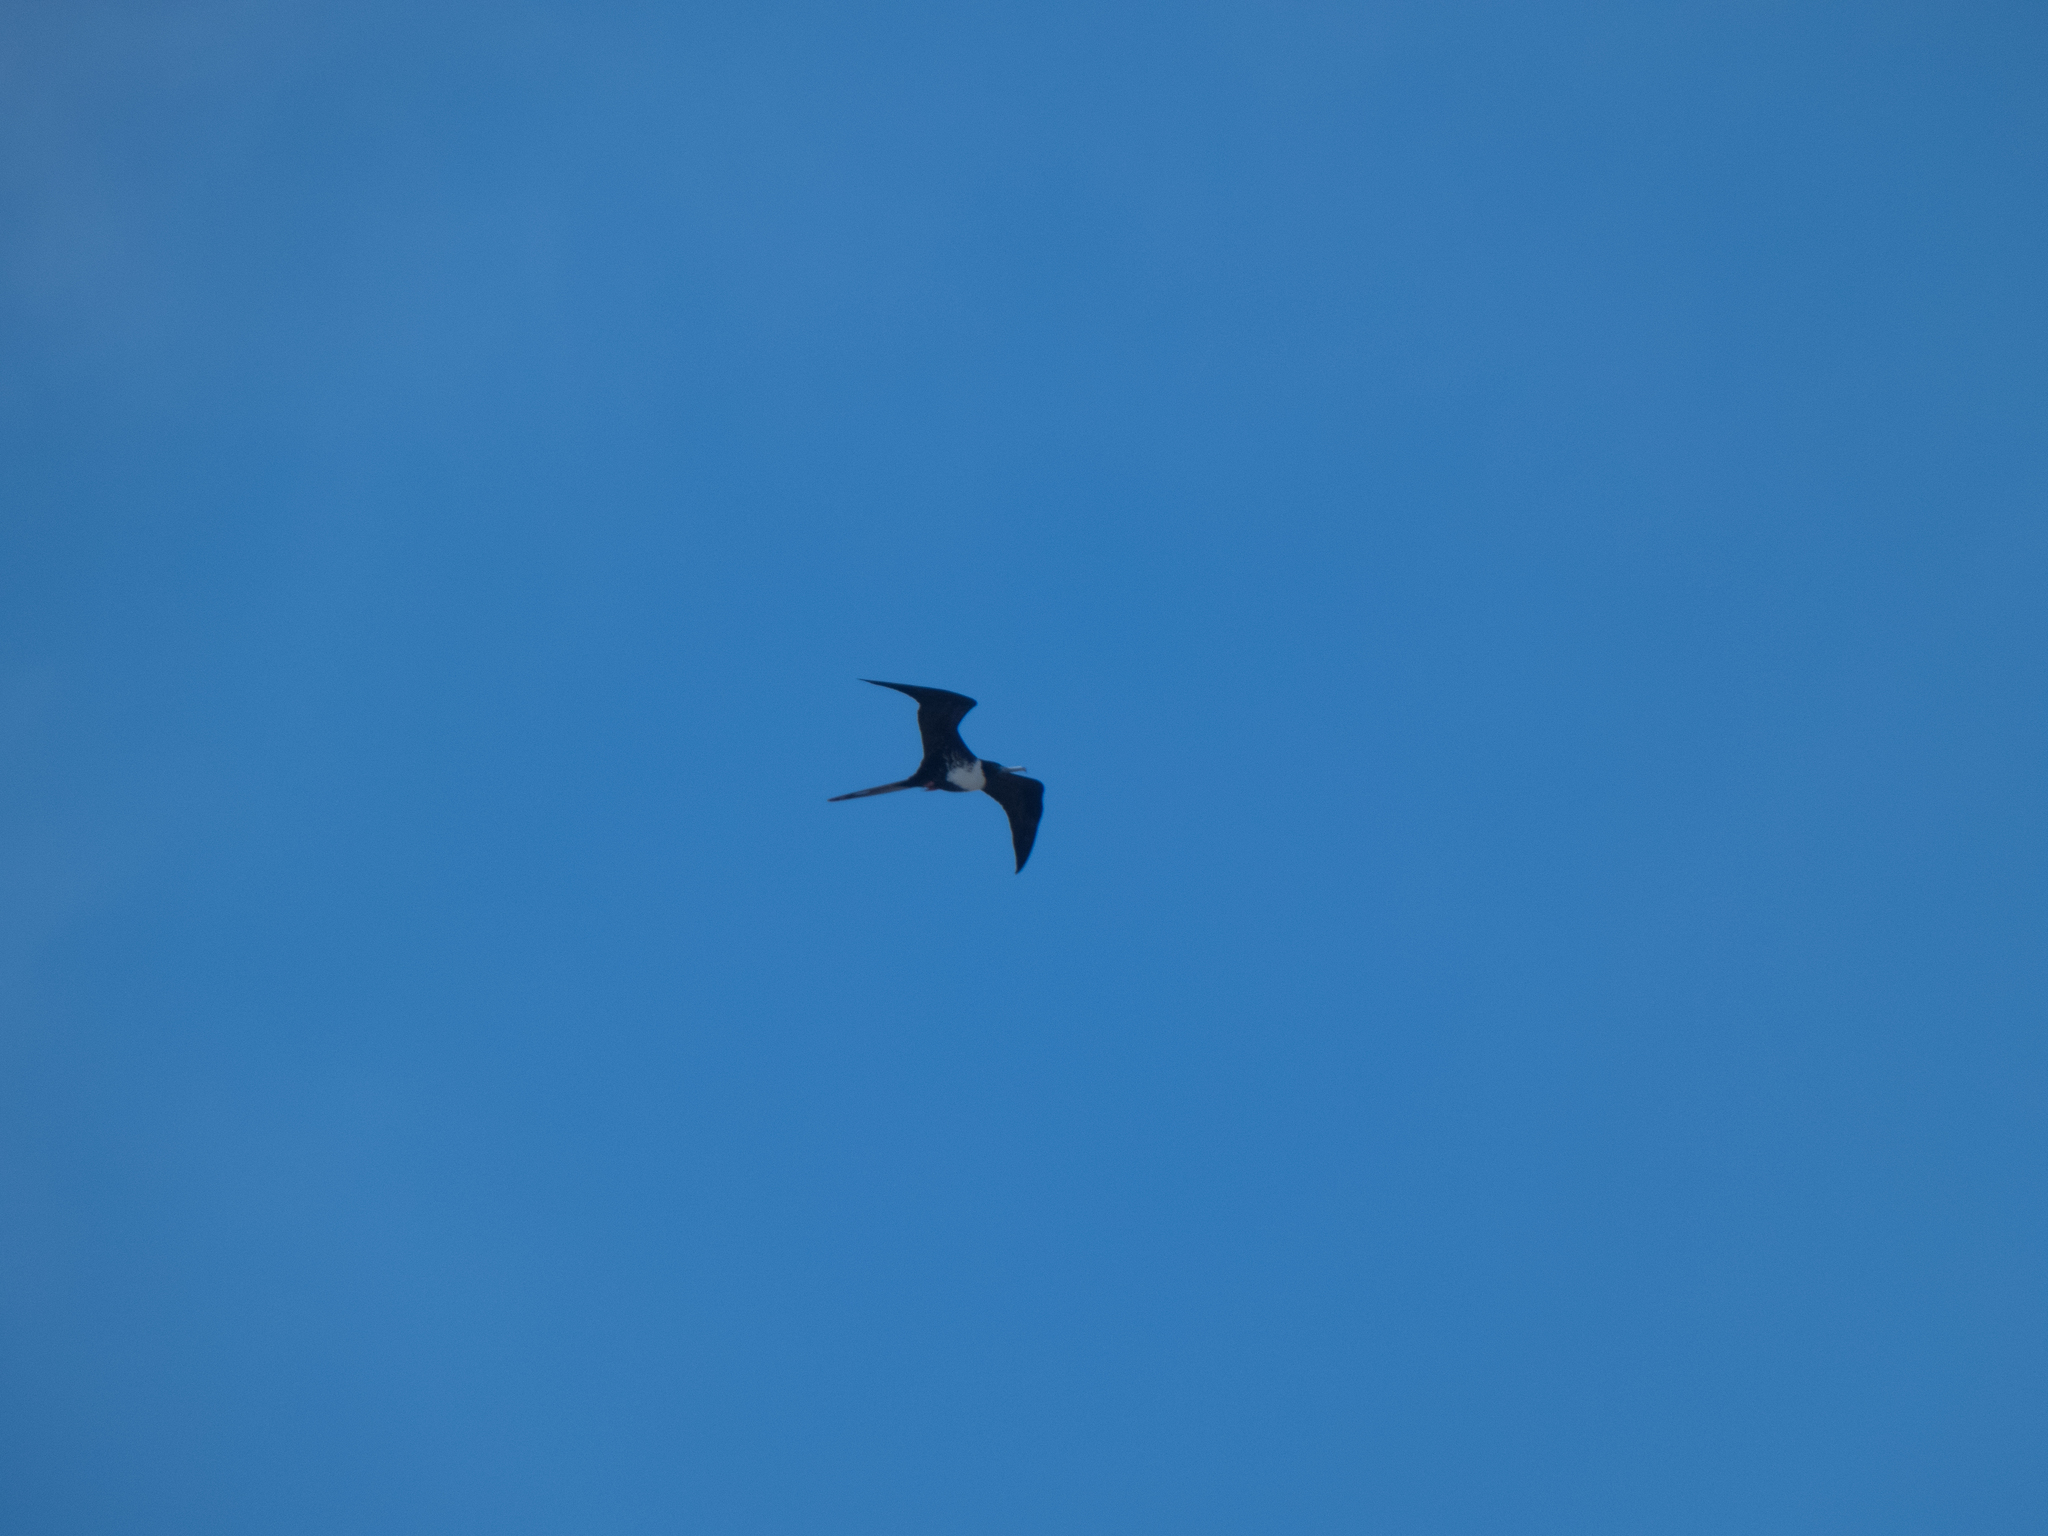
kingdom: Animalia
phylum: Chordata
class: Aves
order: Suliformes
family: Fregatidae
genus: Fregata
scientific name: Fregata magnificens
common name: Magnificent frigatebird
